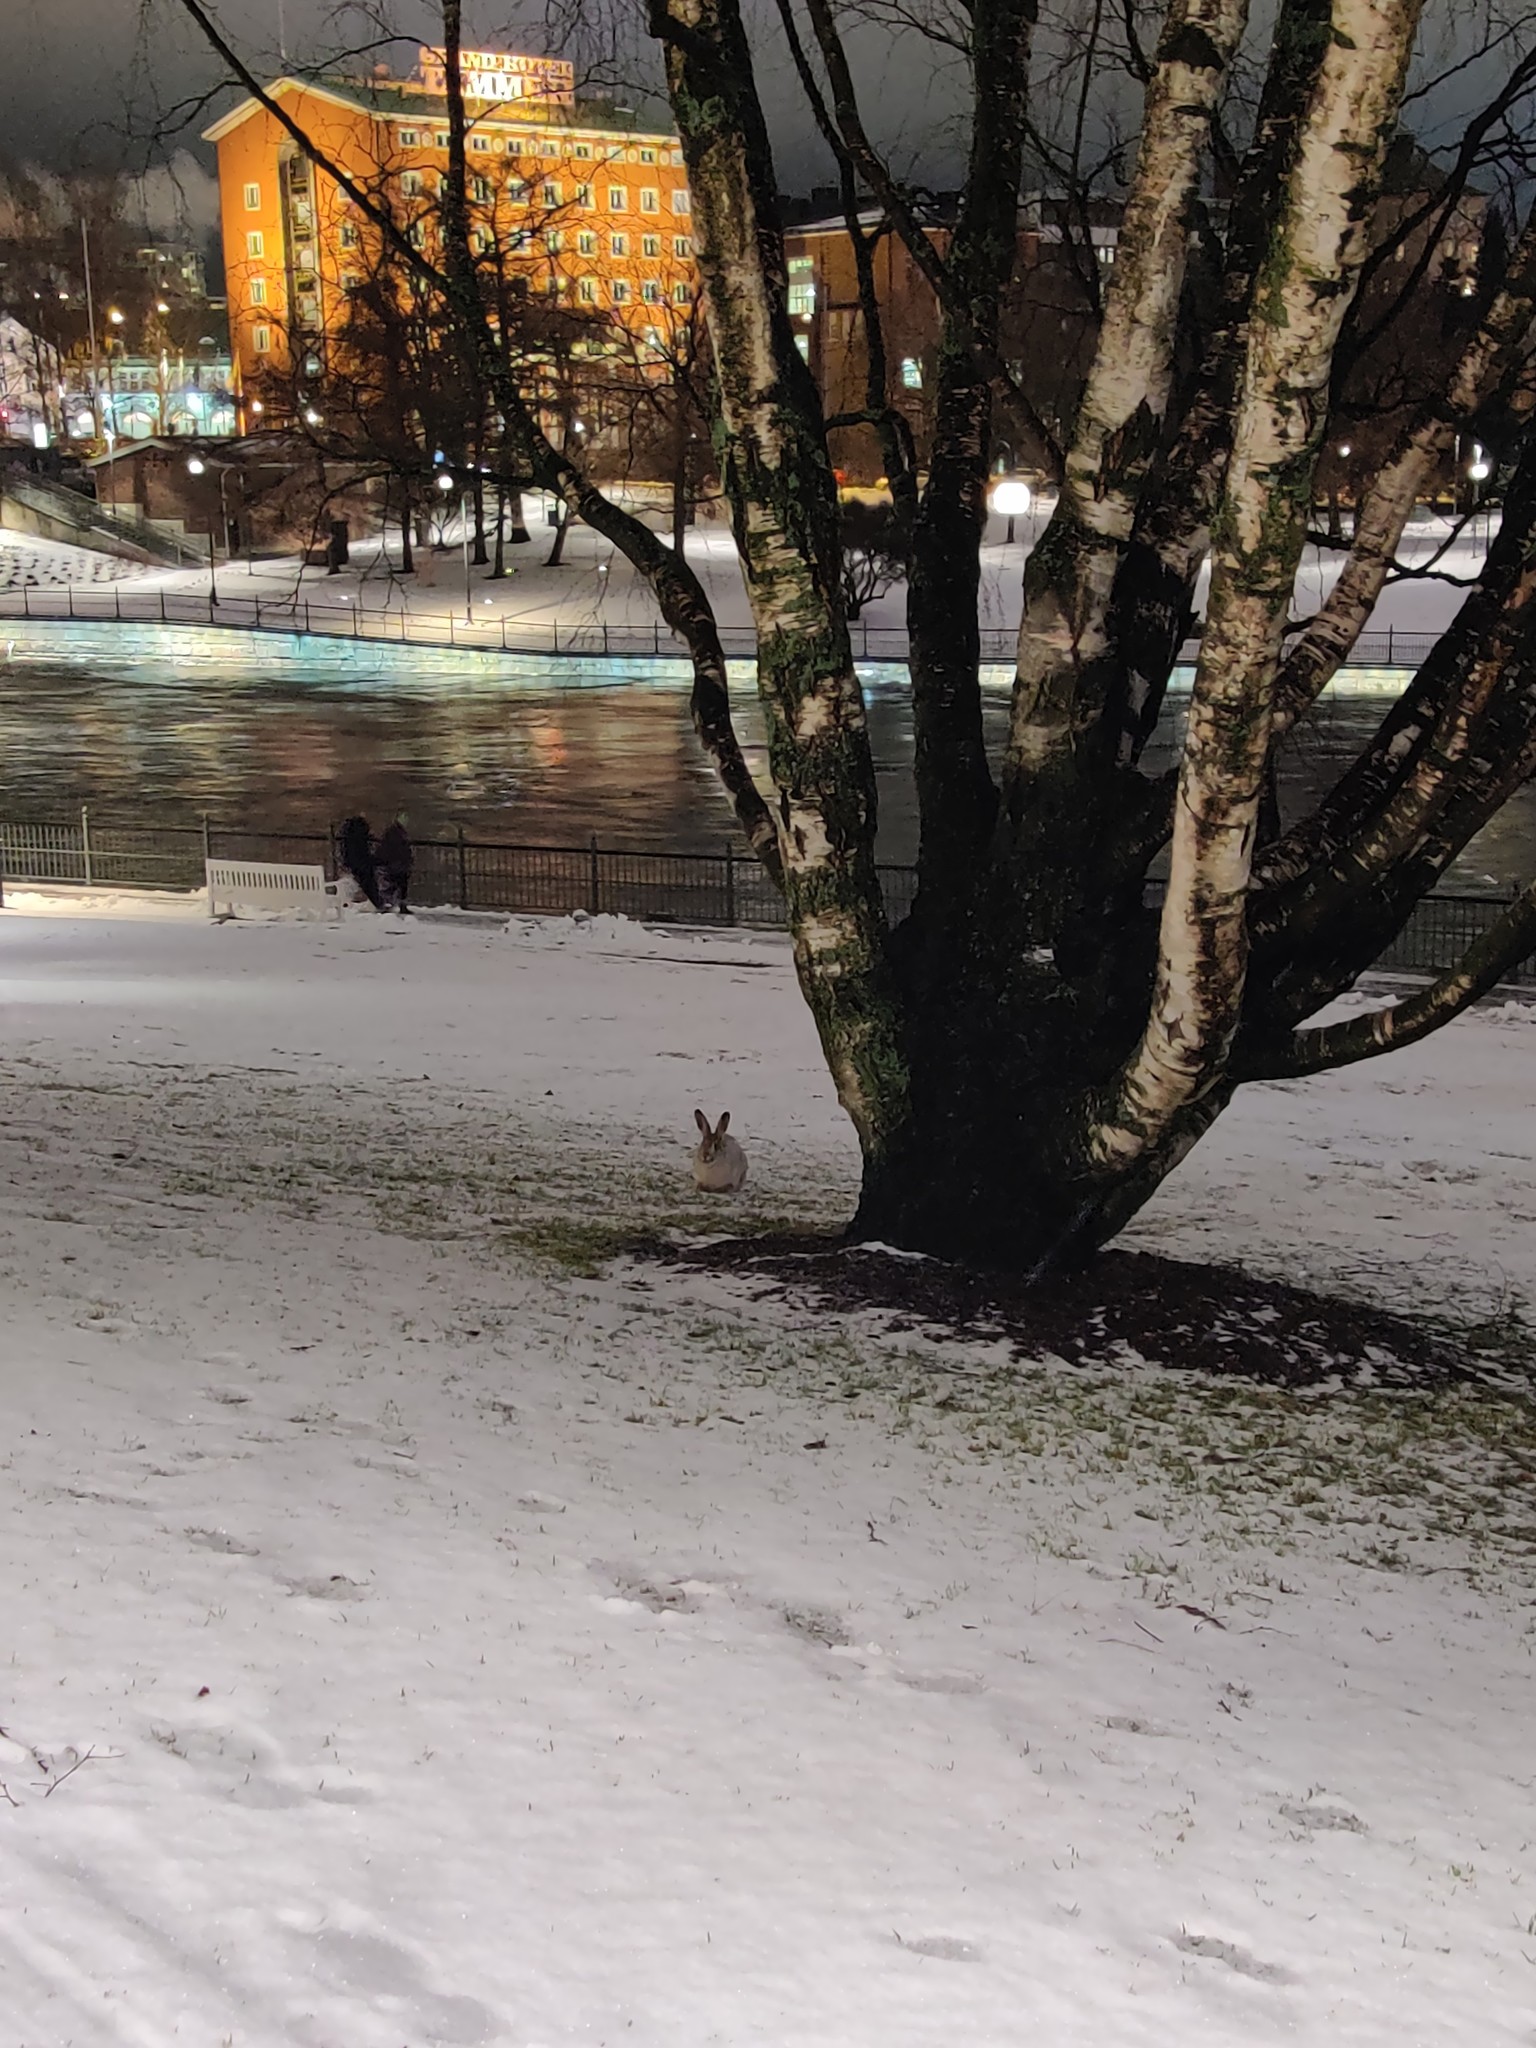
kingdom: Animalia
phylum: Chordata
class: Mammalia
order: Lagomorpha
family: Leporidae
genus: Lepus
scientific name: Lepus europaeus
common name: European hare
